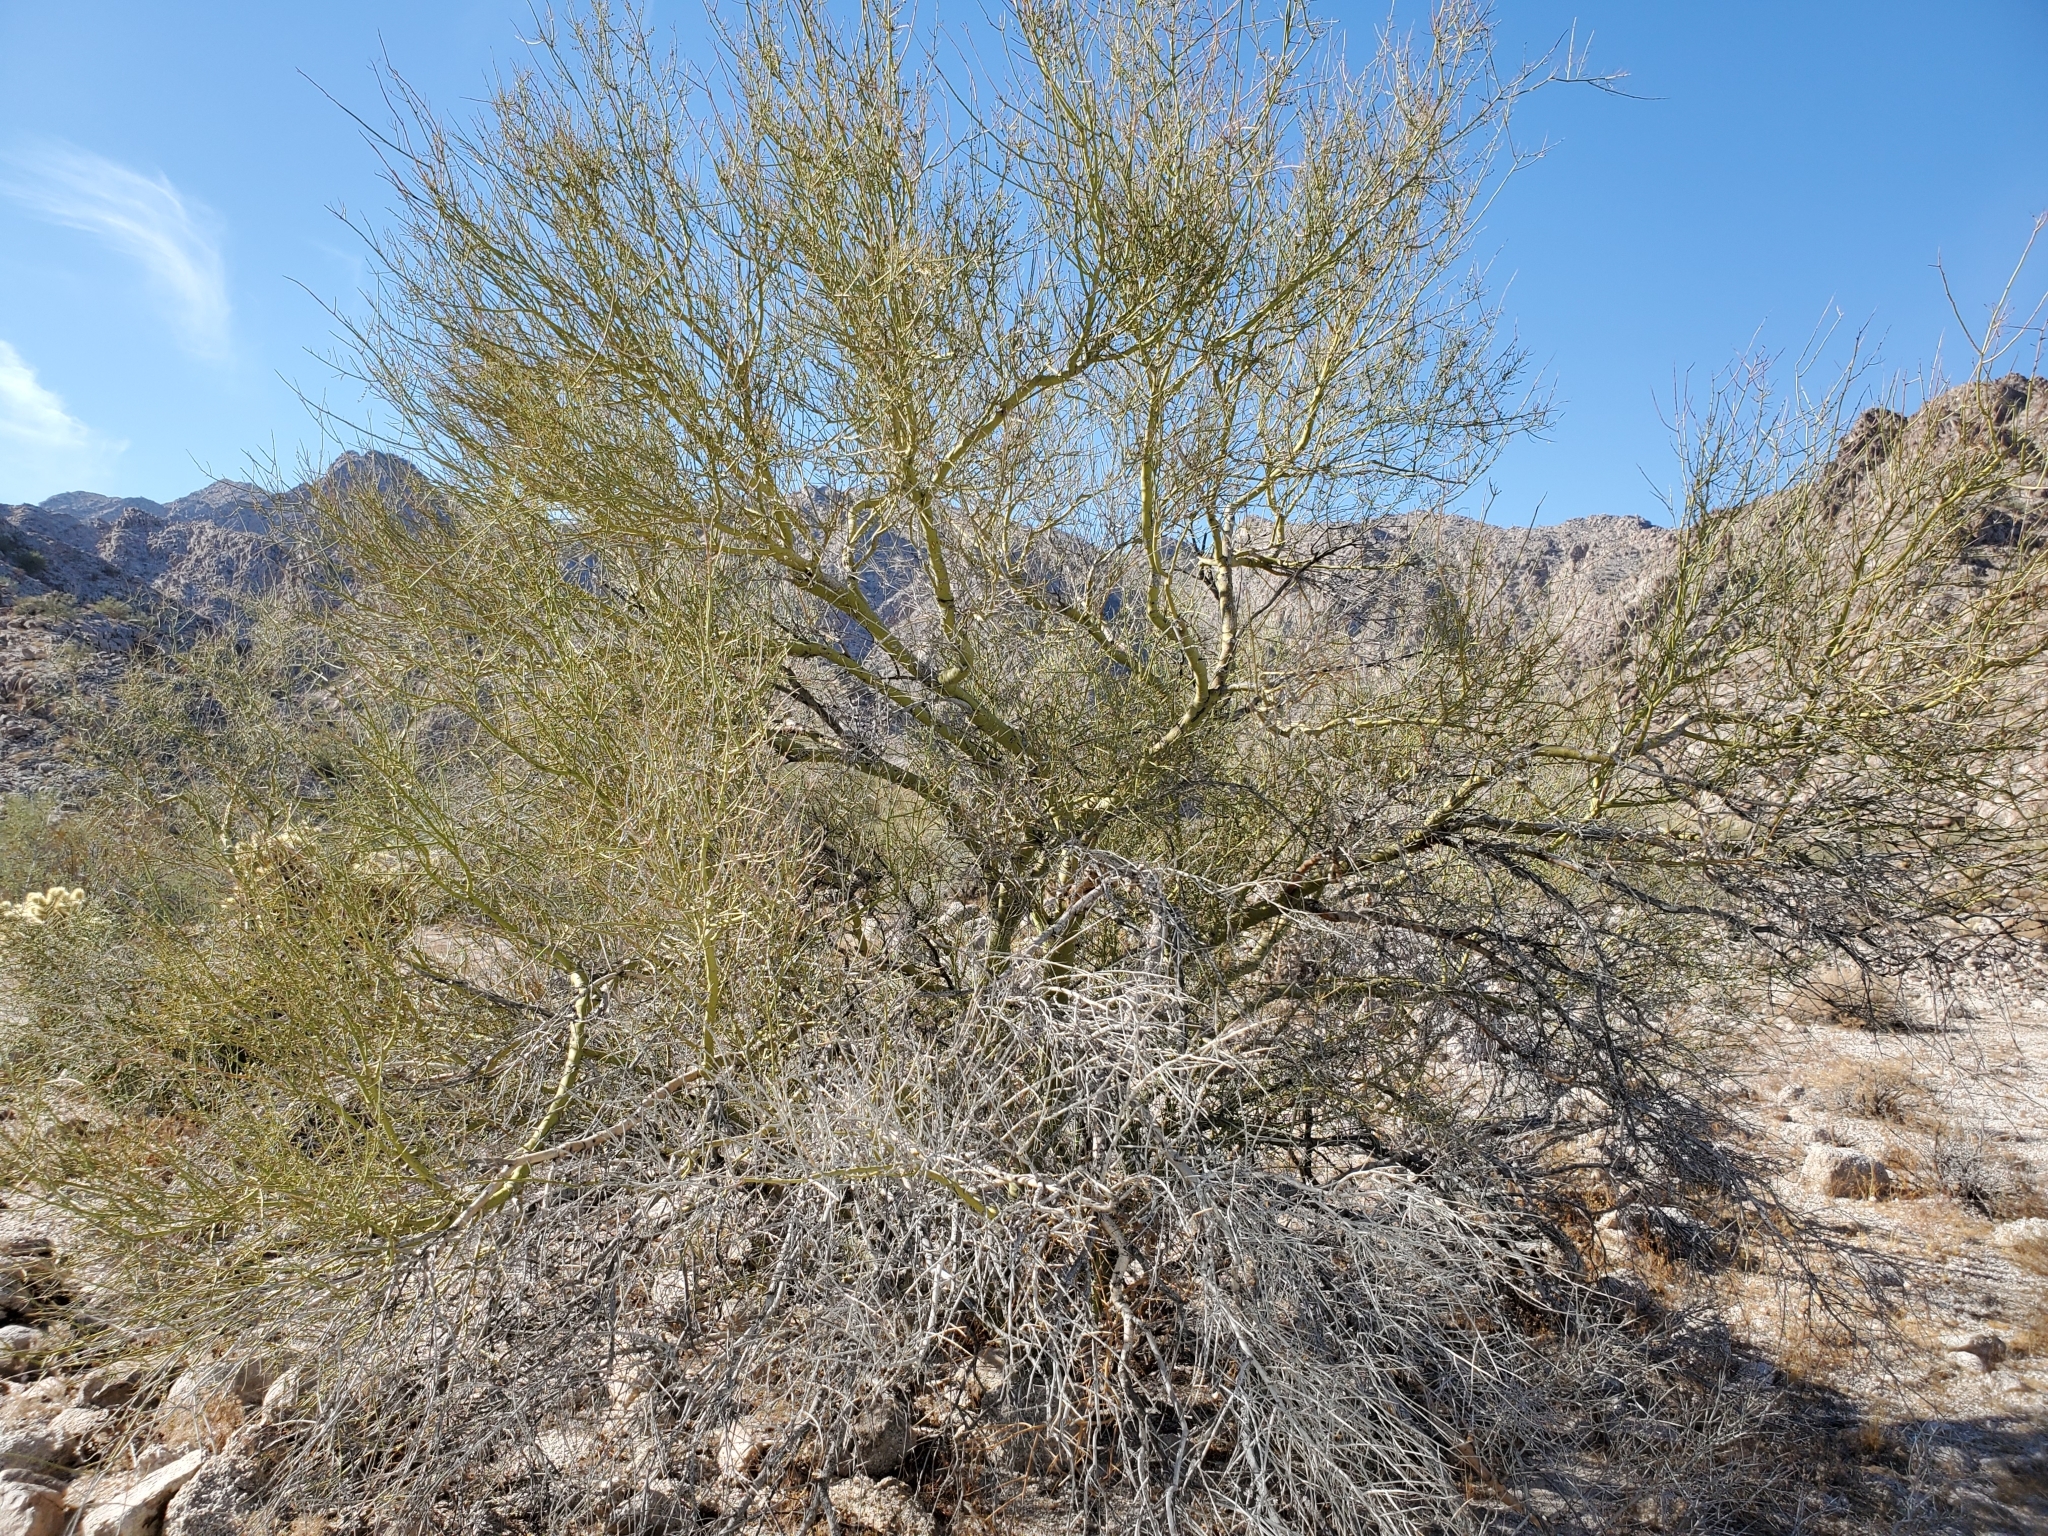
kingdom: Plantae
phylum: Tracheophyta
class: Magnoliopsida
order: Fabales
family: Fabaceae
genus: Parkinsonia
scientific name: Parkinsonia microphylla
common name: Yellow paloverde
